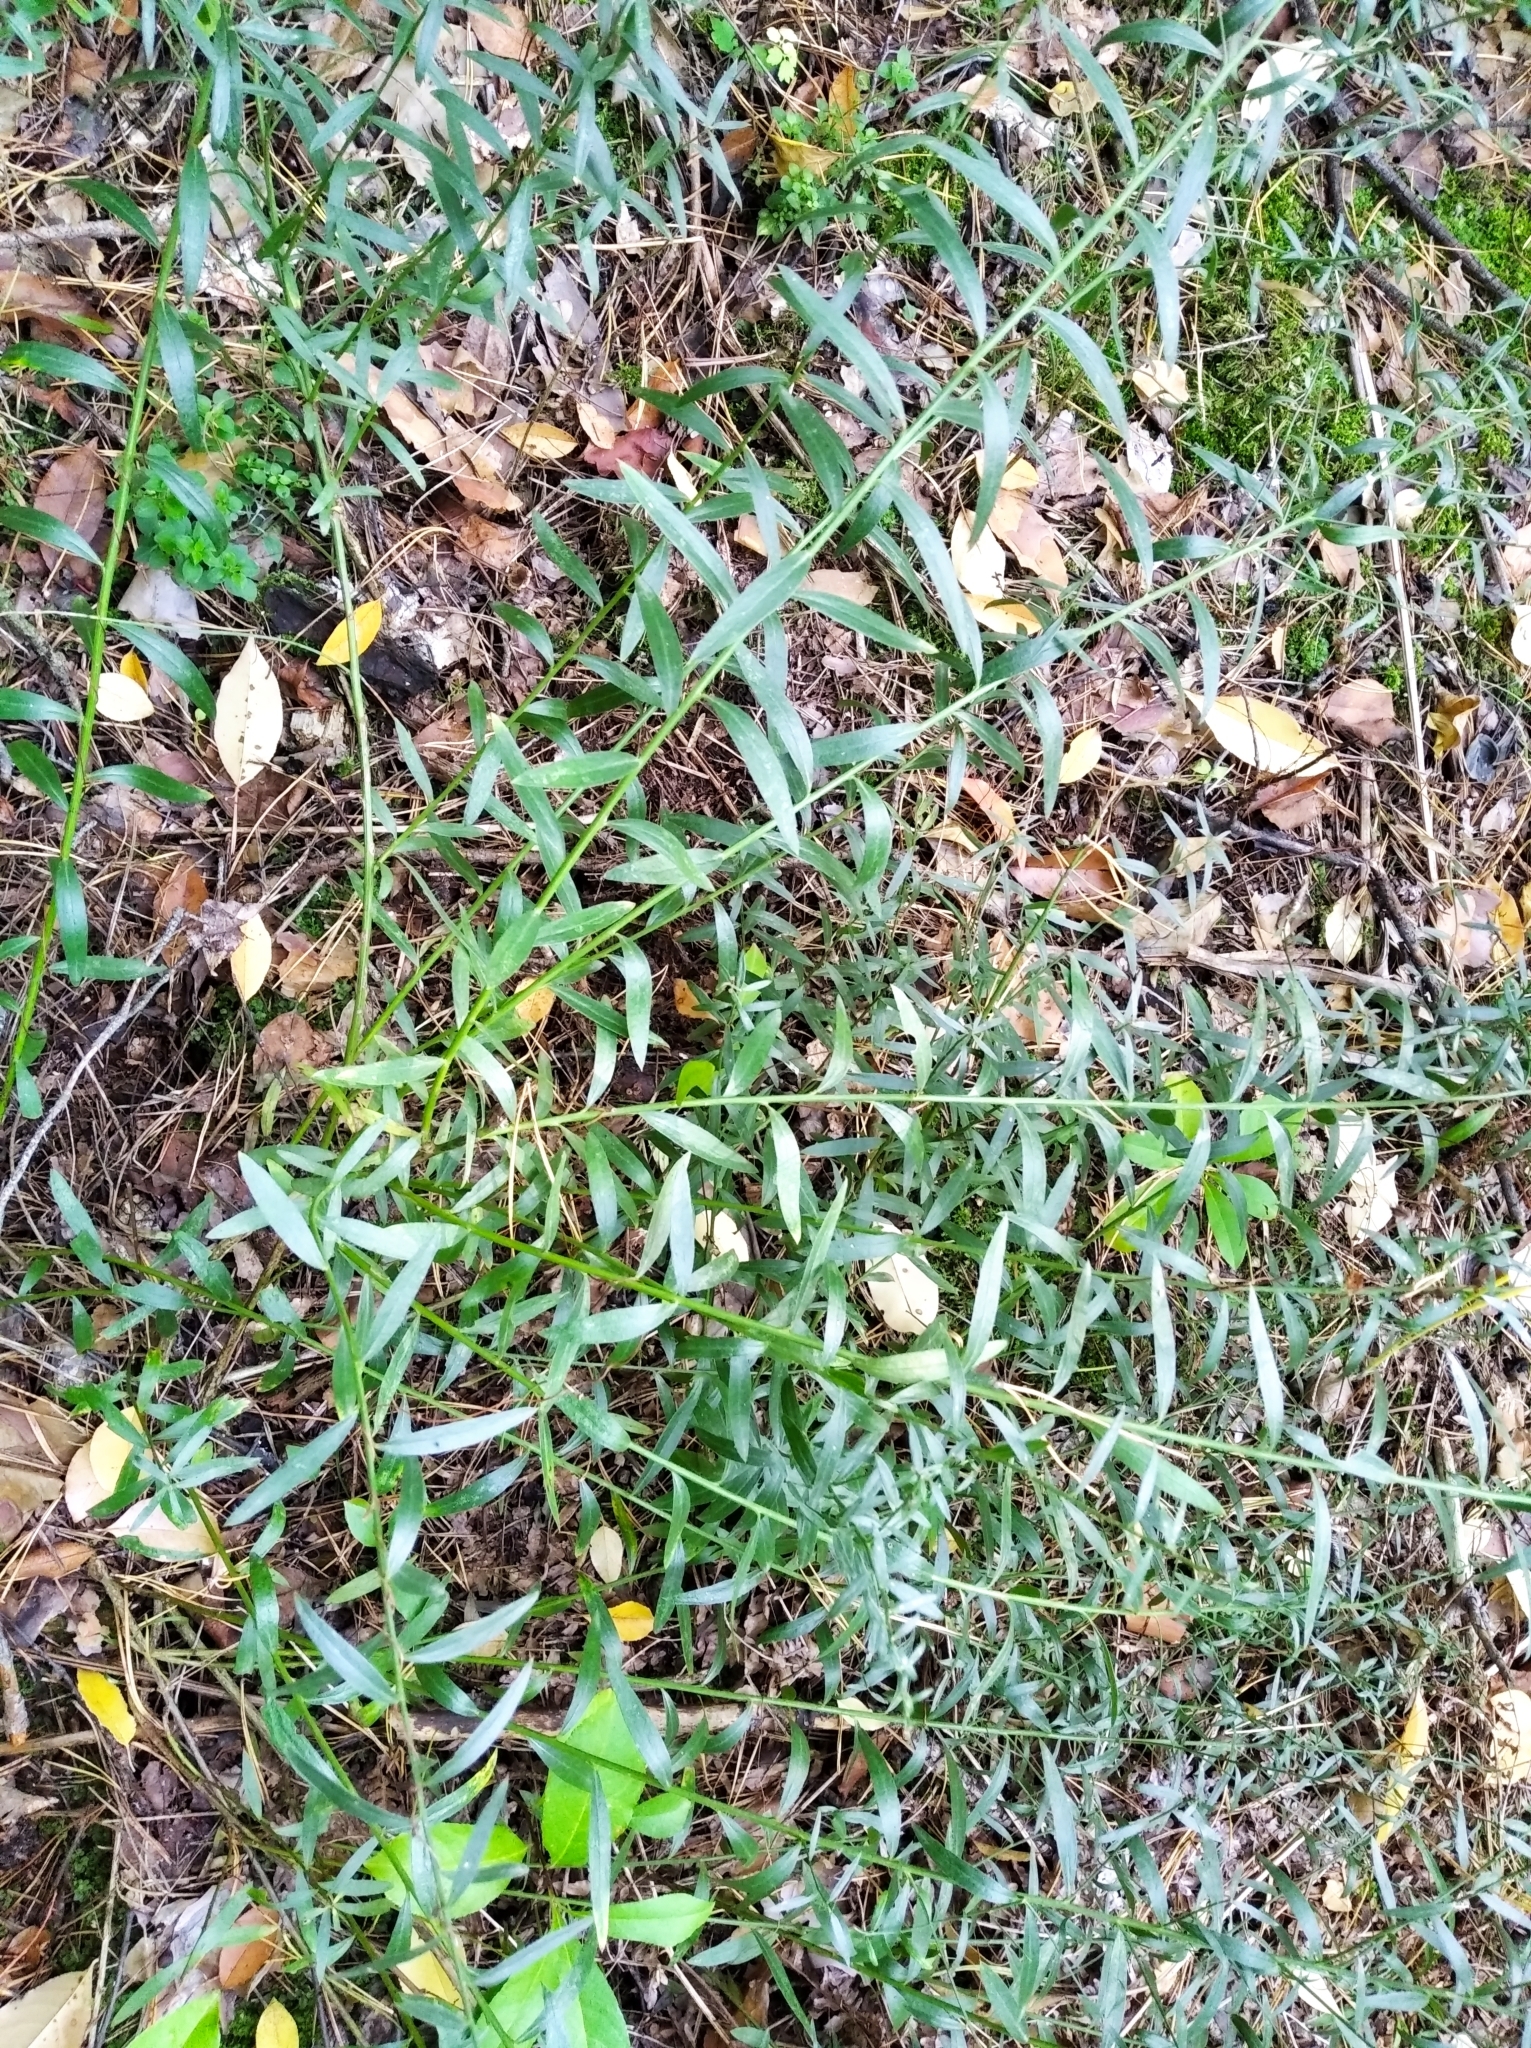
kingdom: Plantae
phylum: Tracheophyta
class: Magnoliopsida
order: Fabales
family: Fabaceae
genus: Genista
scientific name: Genista tinctoria
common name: Dyer's greenweed
